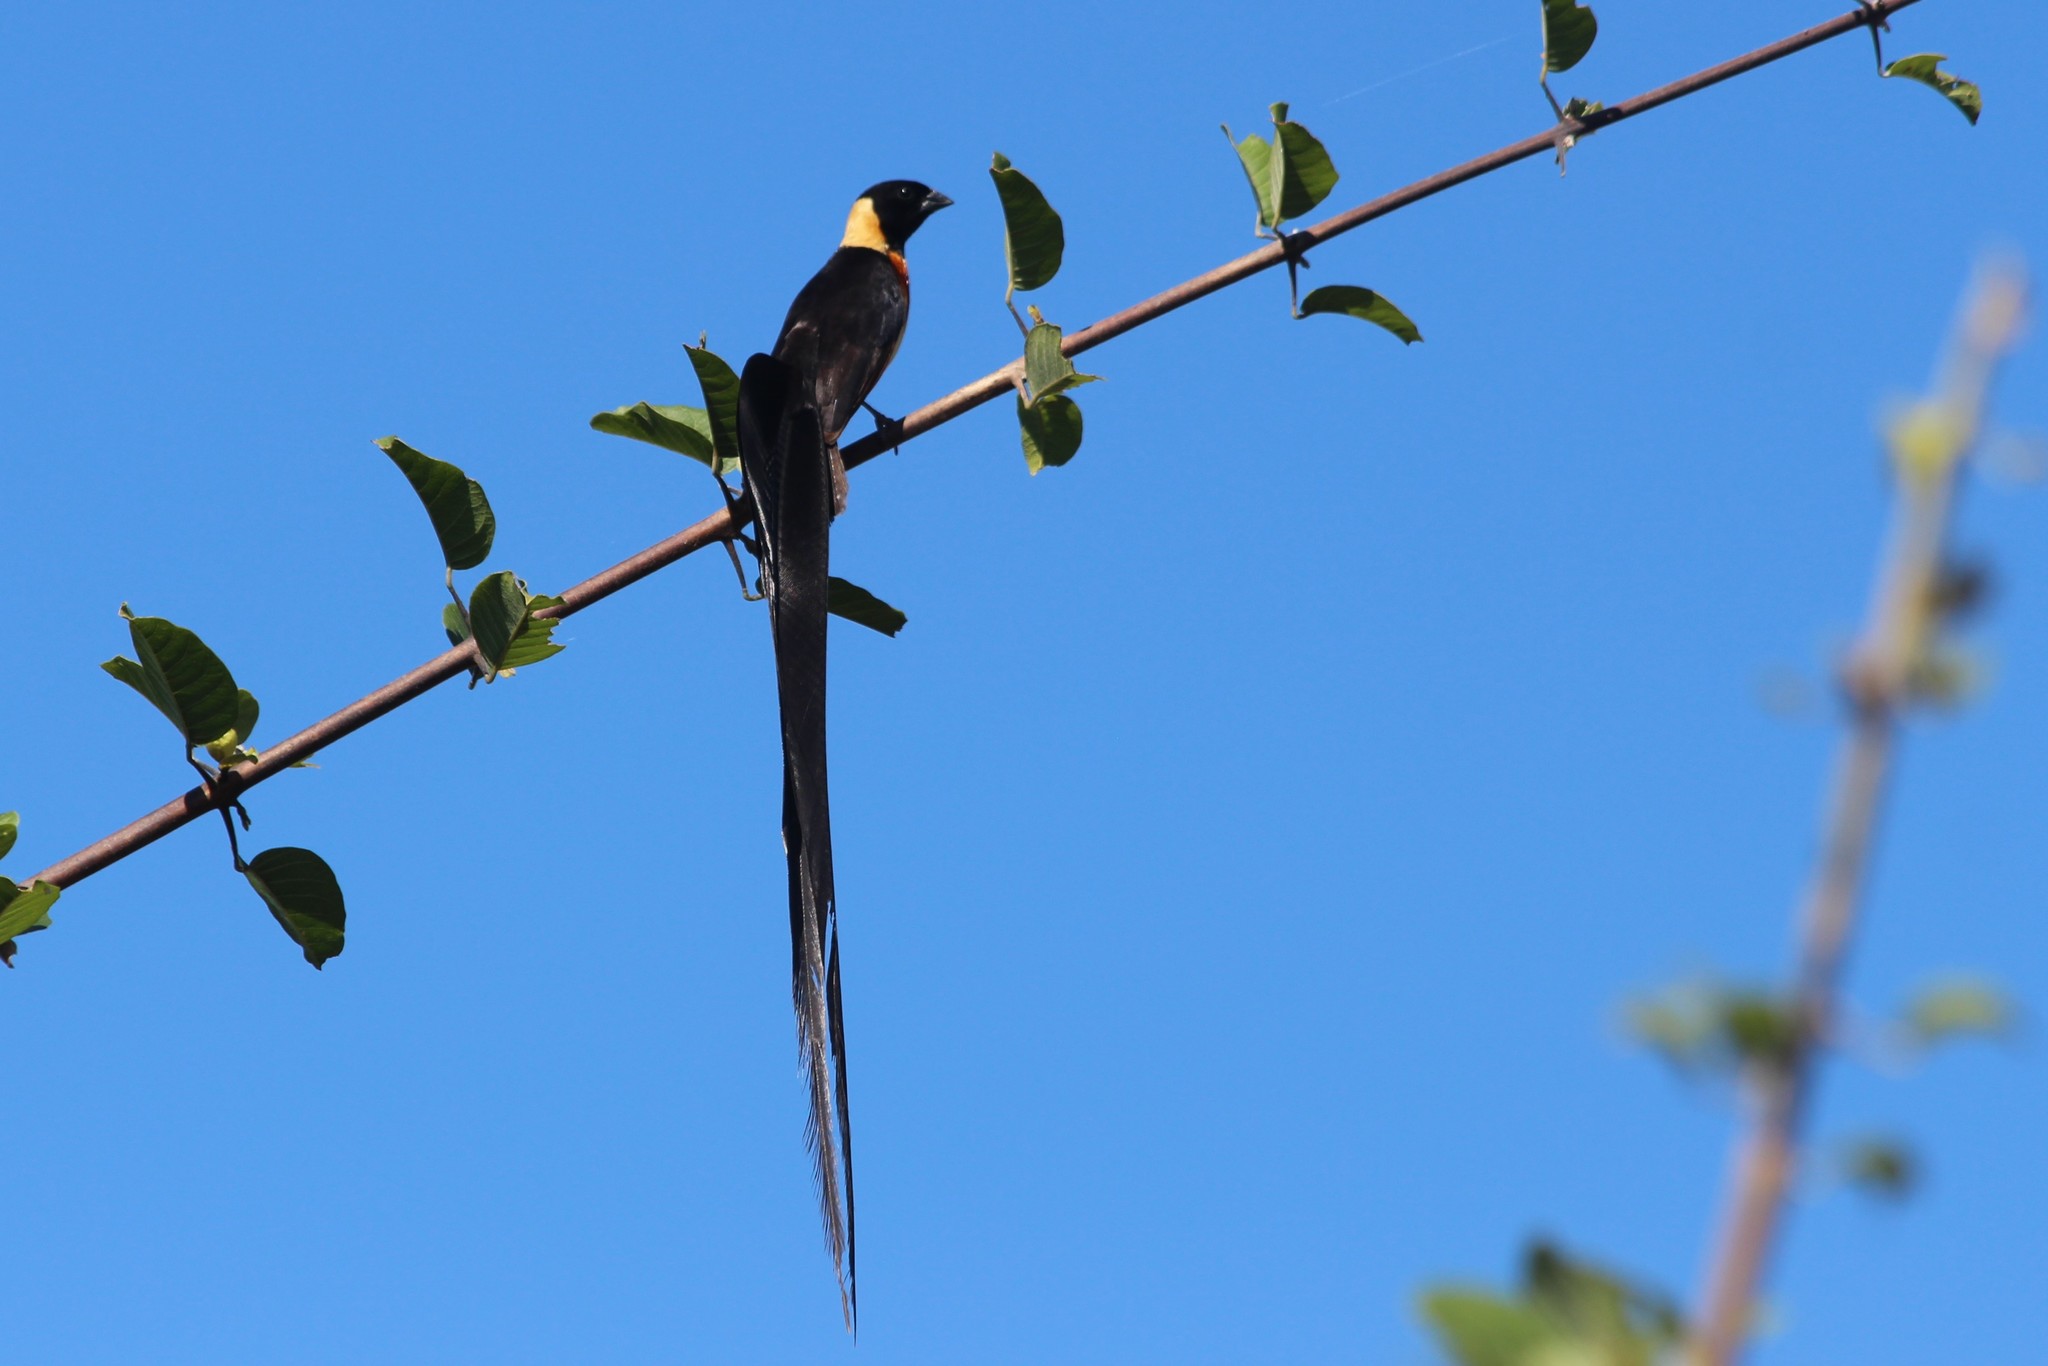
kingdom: Animalia
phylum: Chordata
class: Aves
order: Passeriformes
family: Viduidae
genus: Vidua
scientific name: Vidua paradisaea
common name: Long-tailed paradise whydah
